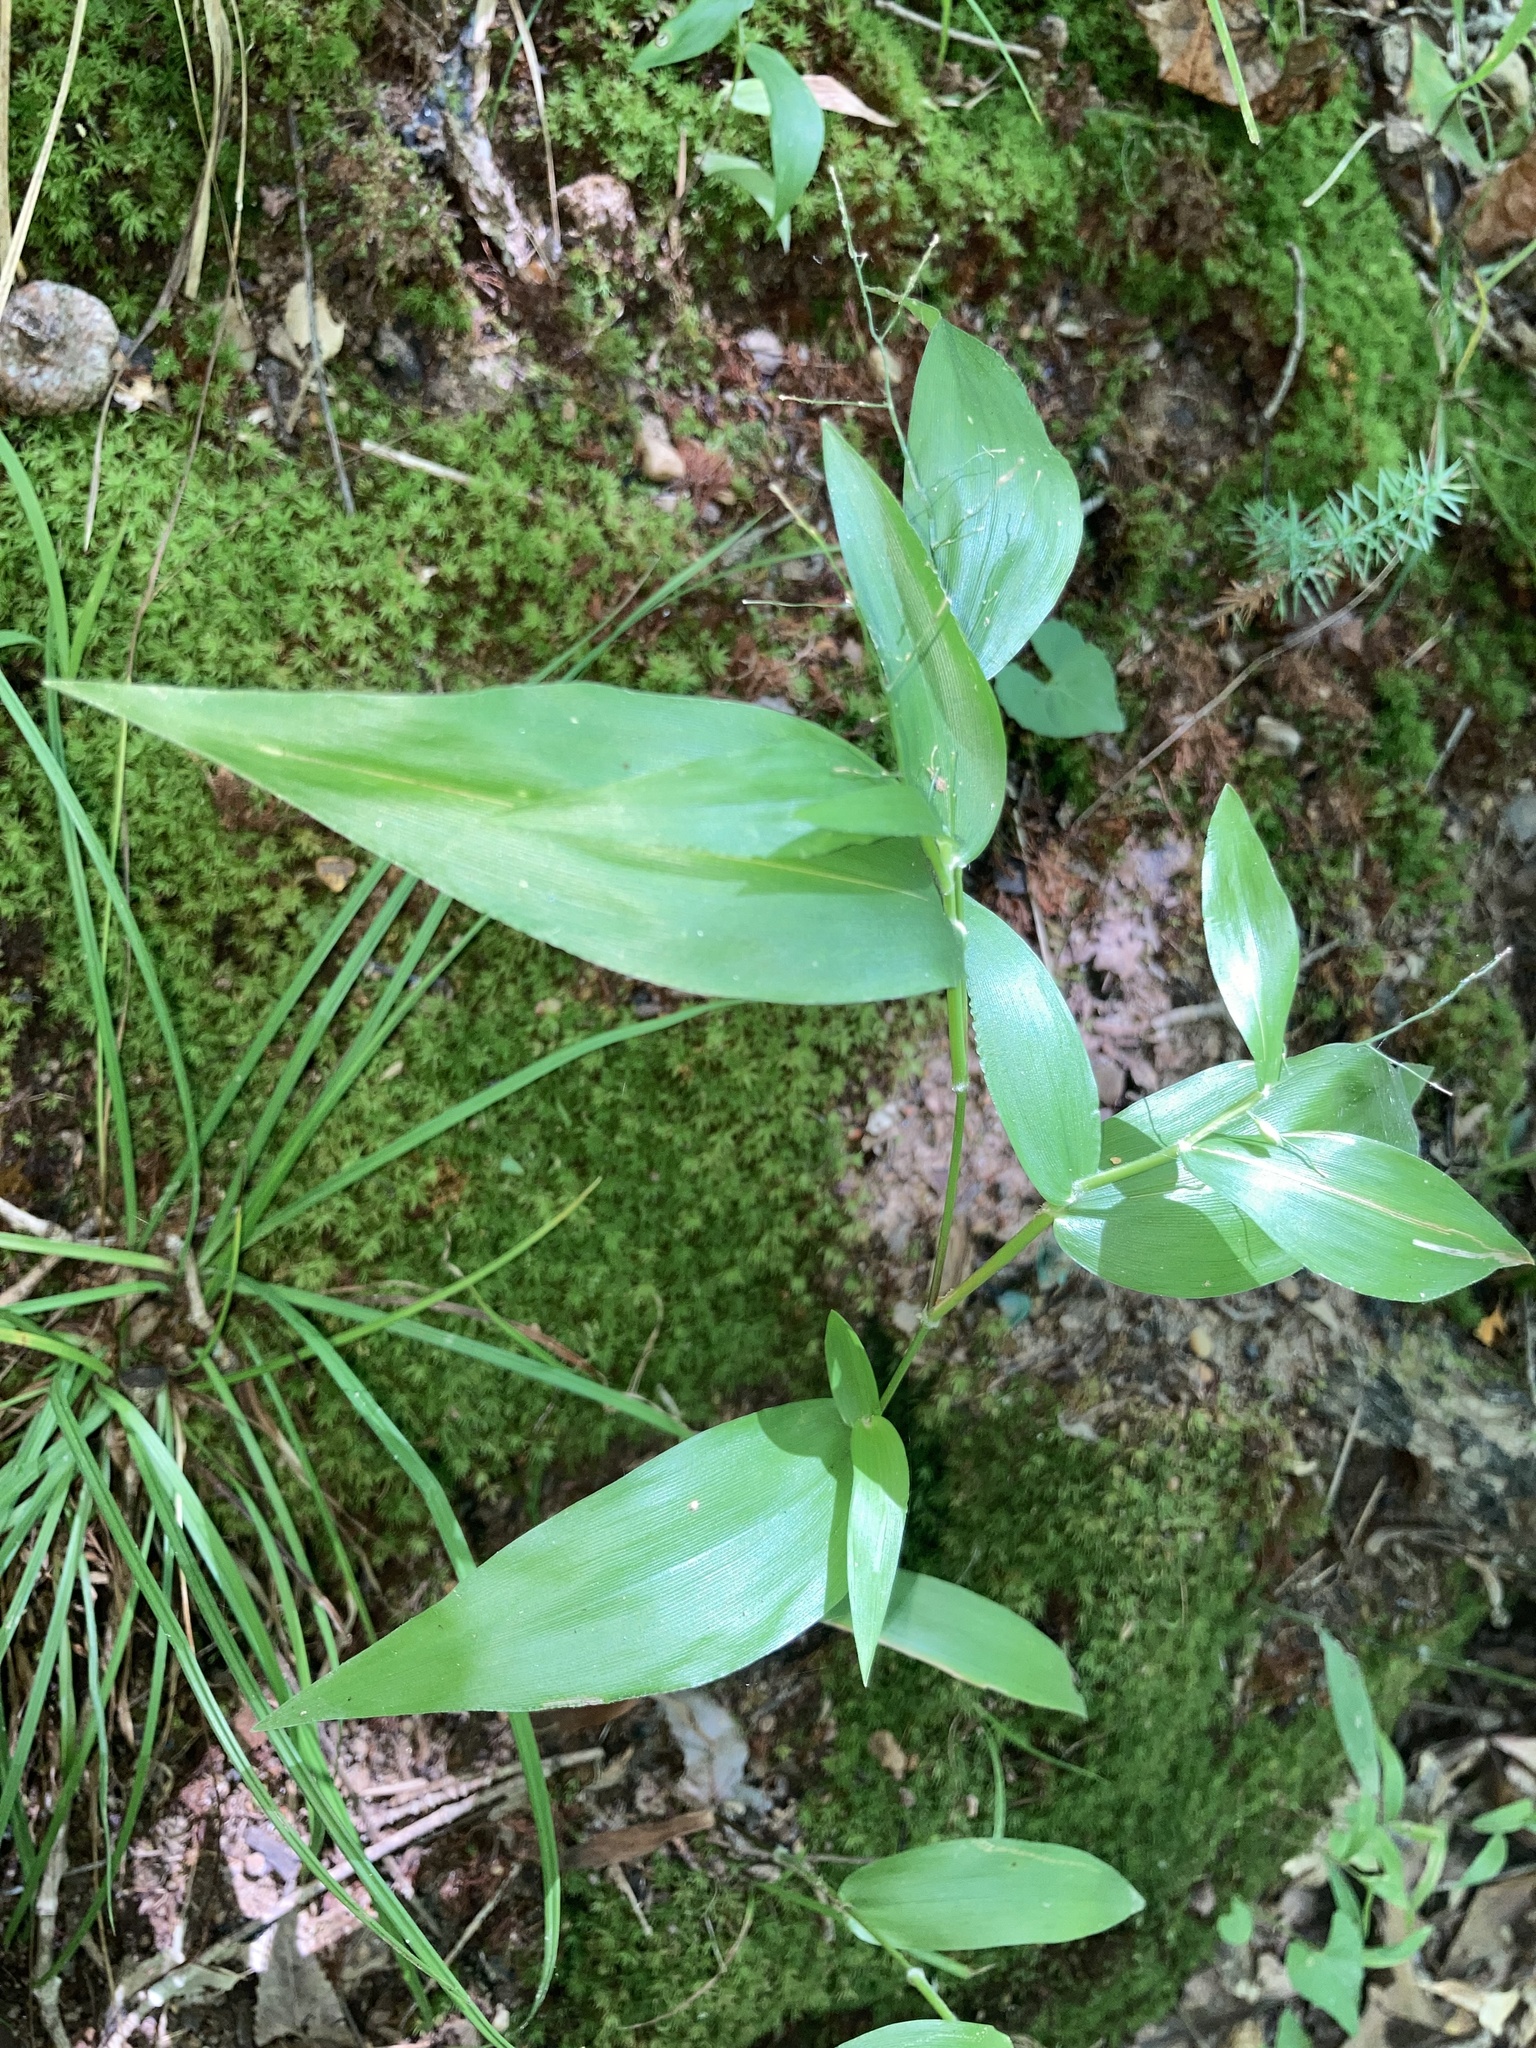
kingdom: Plantae
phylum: Tracheophyta
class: Liliopsida
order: Poales
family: Poaceae
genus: Dichanthelium
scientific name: Dichanthelium boscii
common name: Bosc's panic grass
